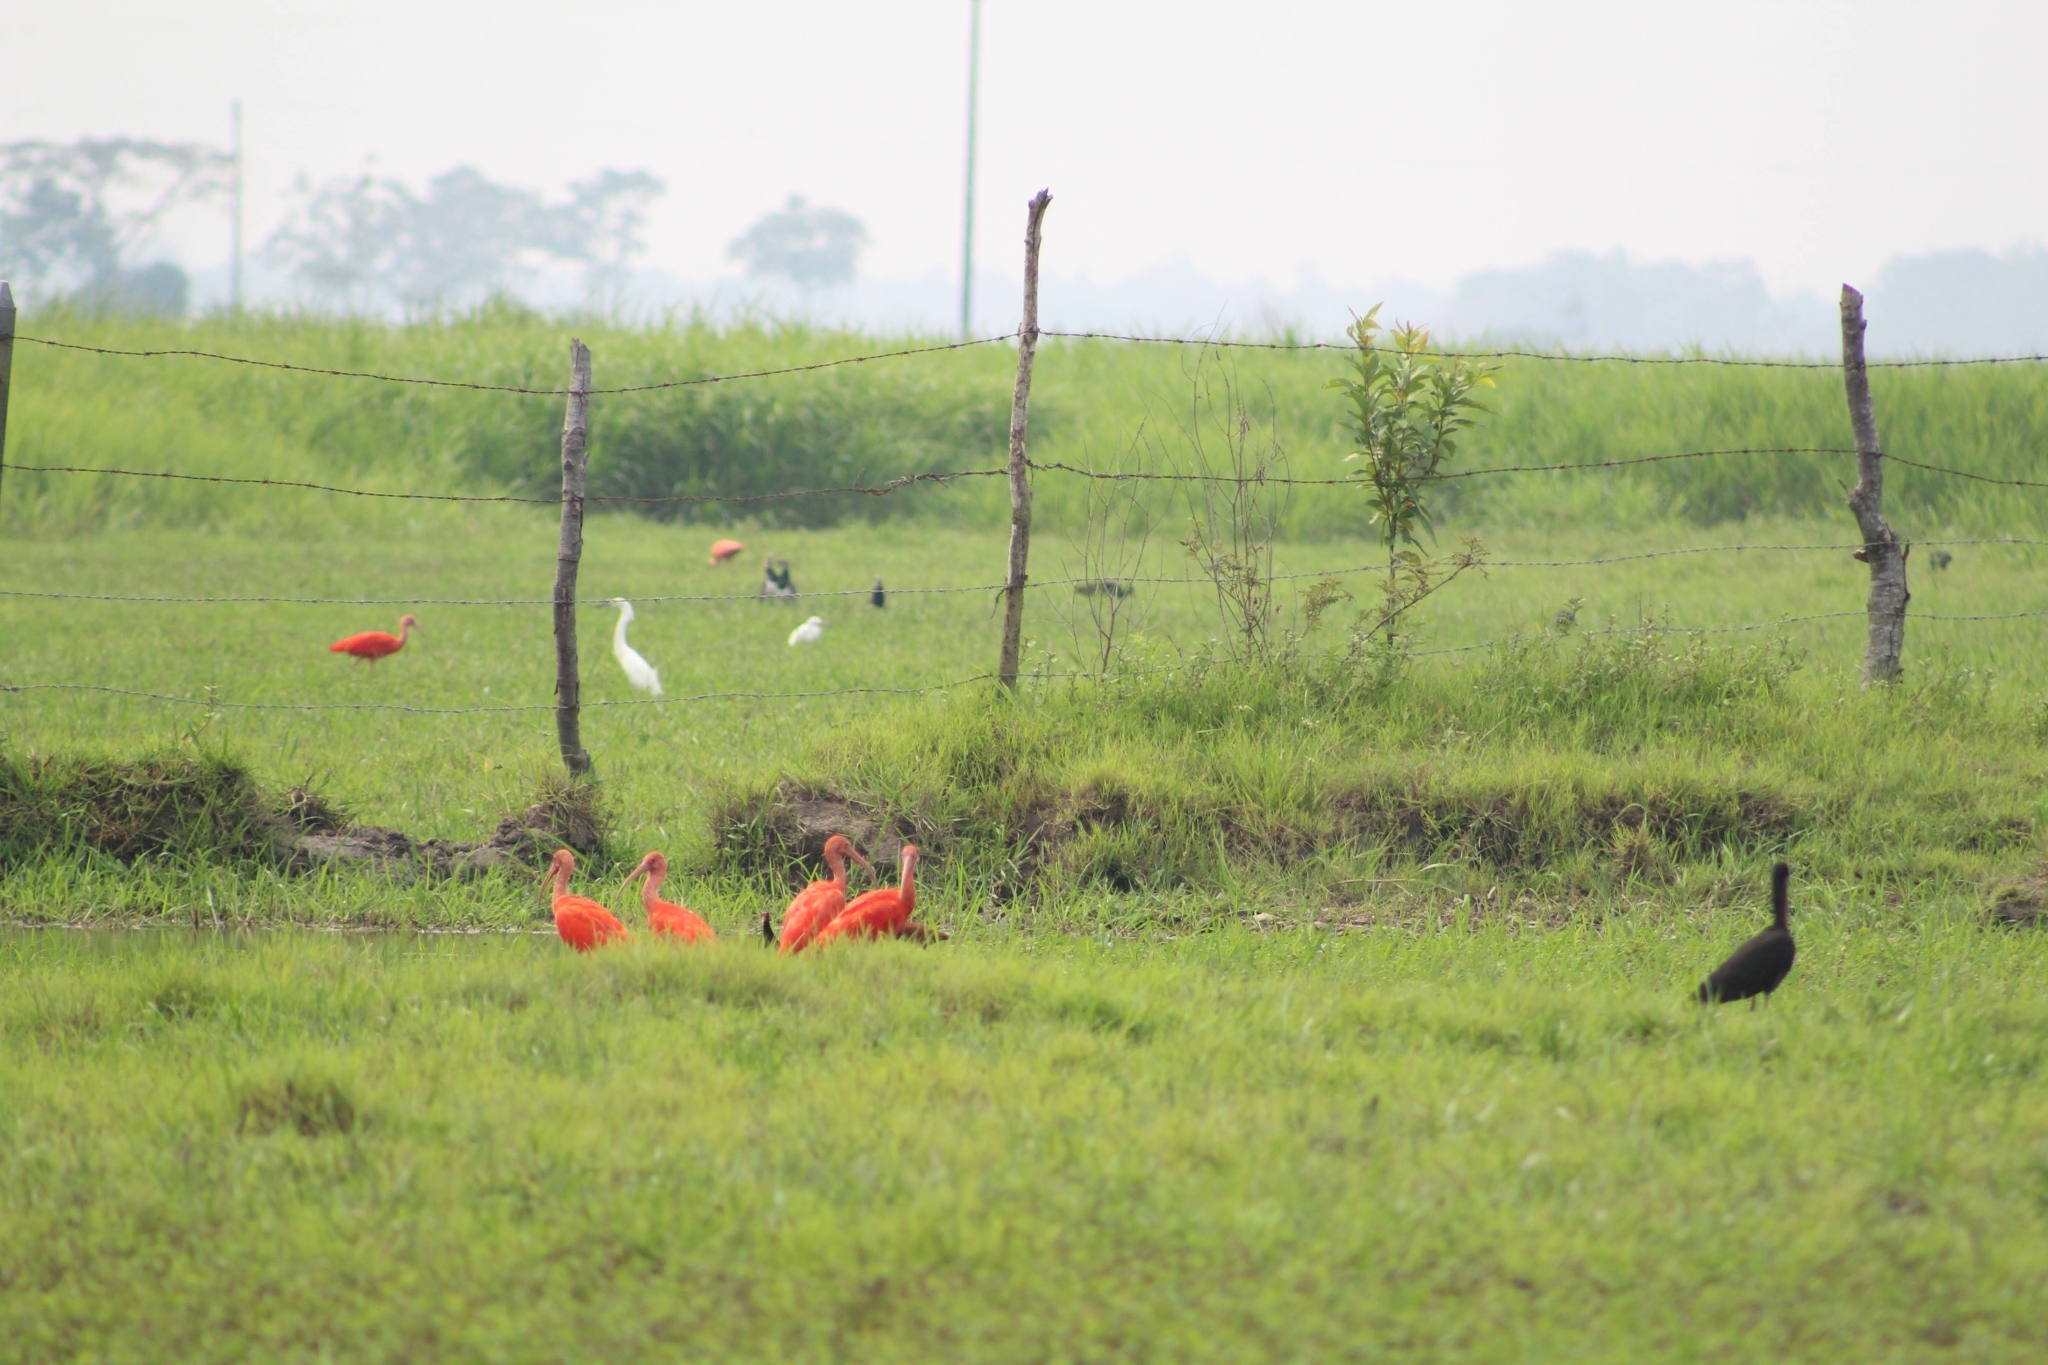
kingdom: Animalia
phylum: Chordata
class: Aves
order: Pelecaniformes
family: Threskiornithidae
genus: Eudocimus
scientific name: Eudocimus ruber
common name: Scarlet ibis
